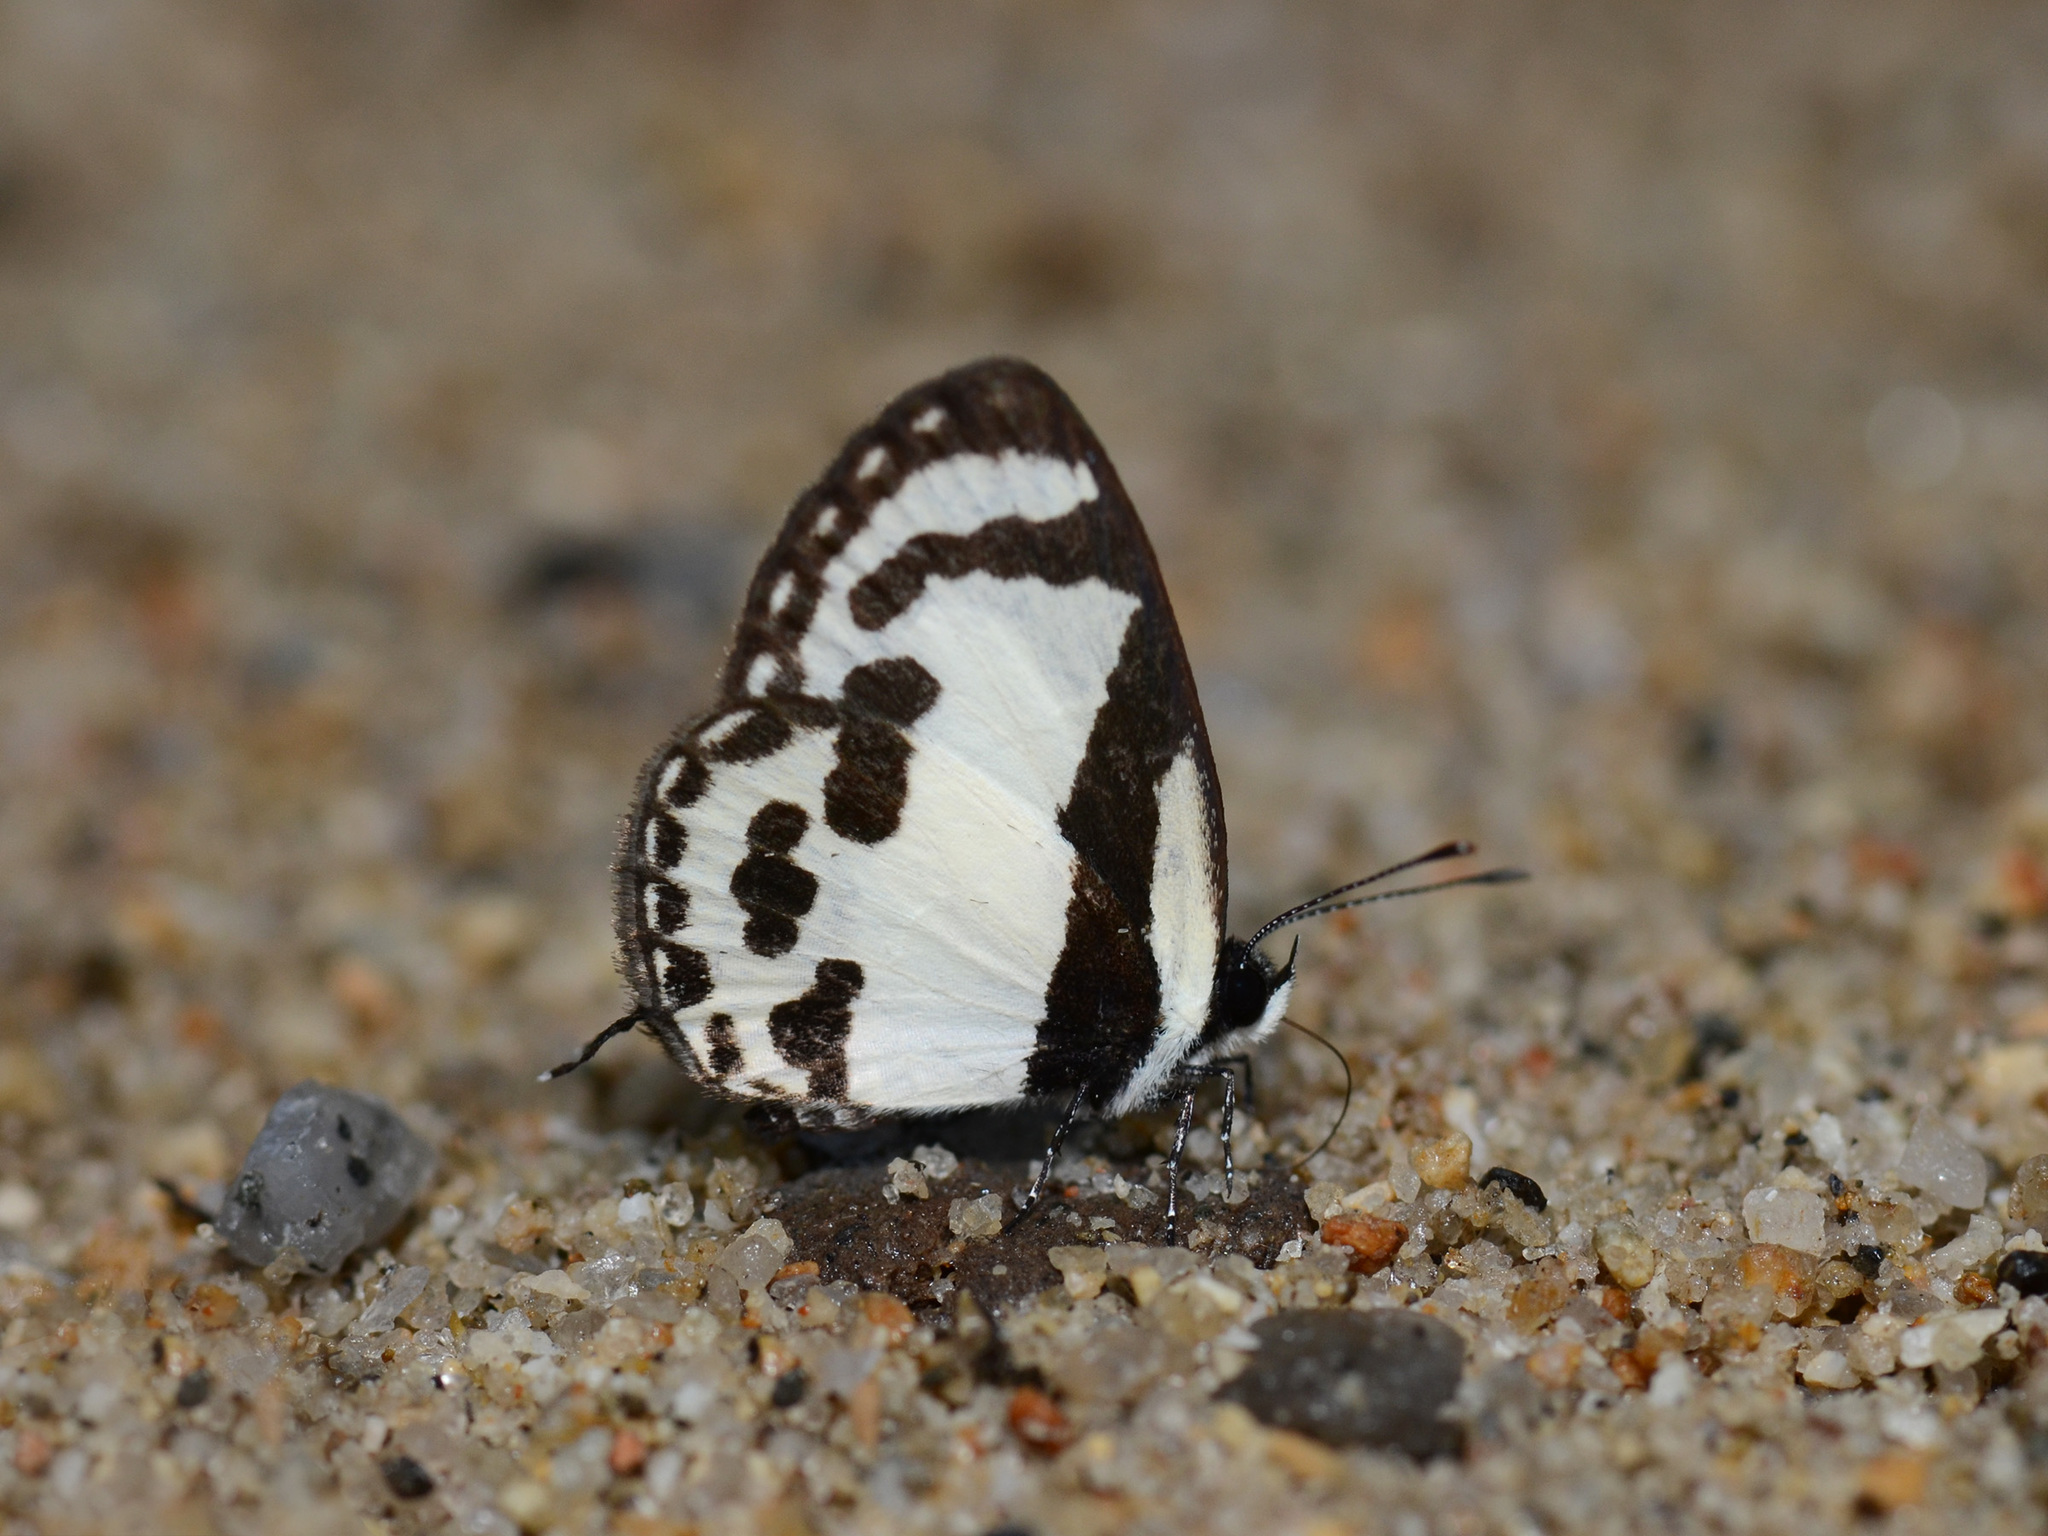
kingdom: Animalia
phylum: Arthropoda
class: Insecta
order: Lepidoptera
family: Lycaenidae
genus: Caleta
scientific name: Caleta roxus
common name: Straight pierrot
